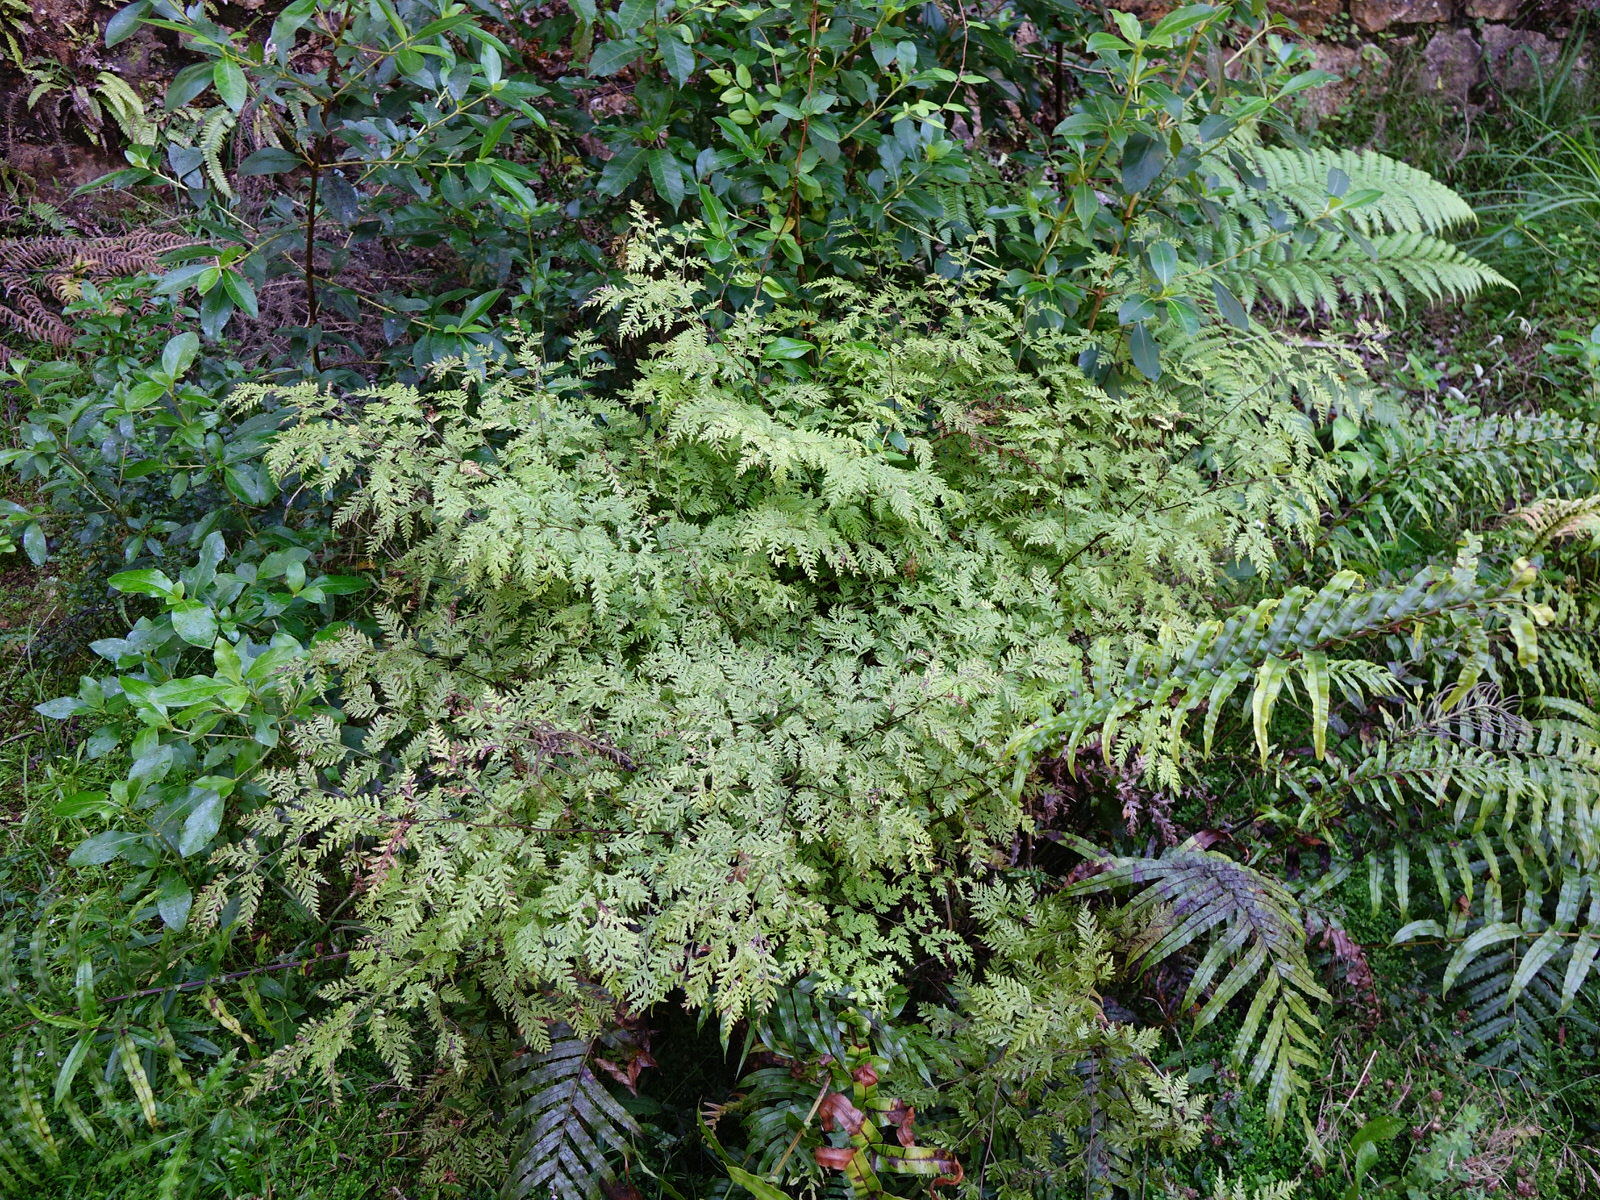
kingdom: Plantae
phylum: Tracheophyta
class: Polypodiopsida
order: Polypodiales
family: Pteridaceae
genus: Pteris
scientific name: Pteris macilenta
